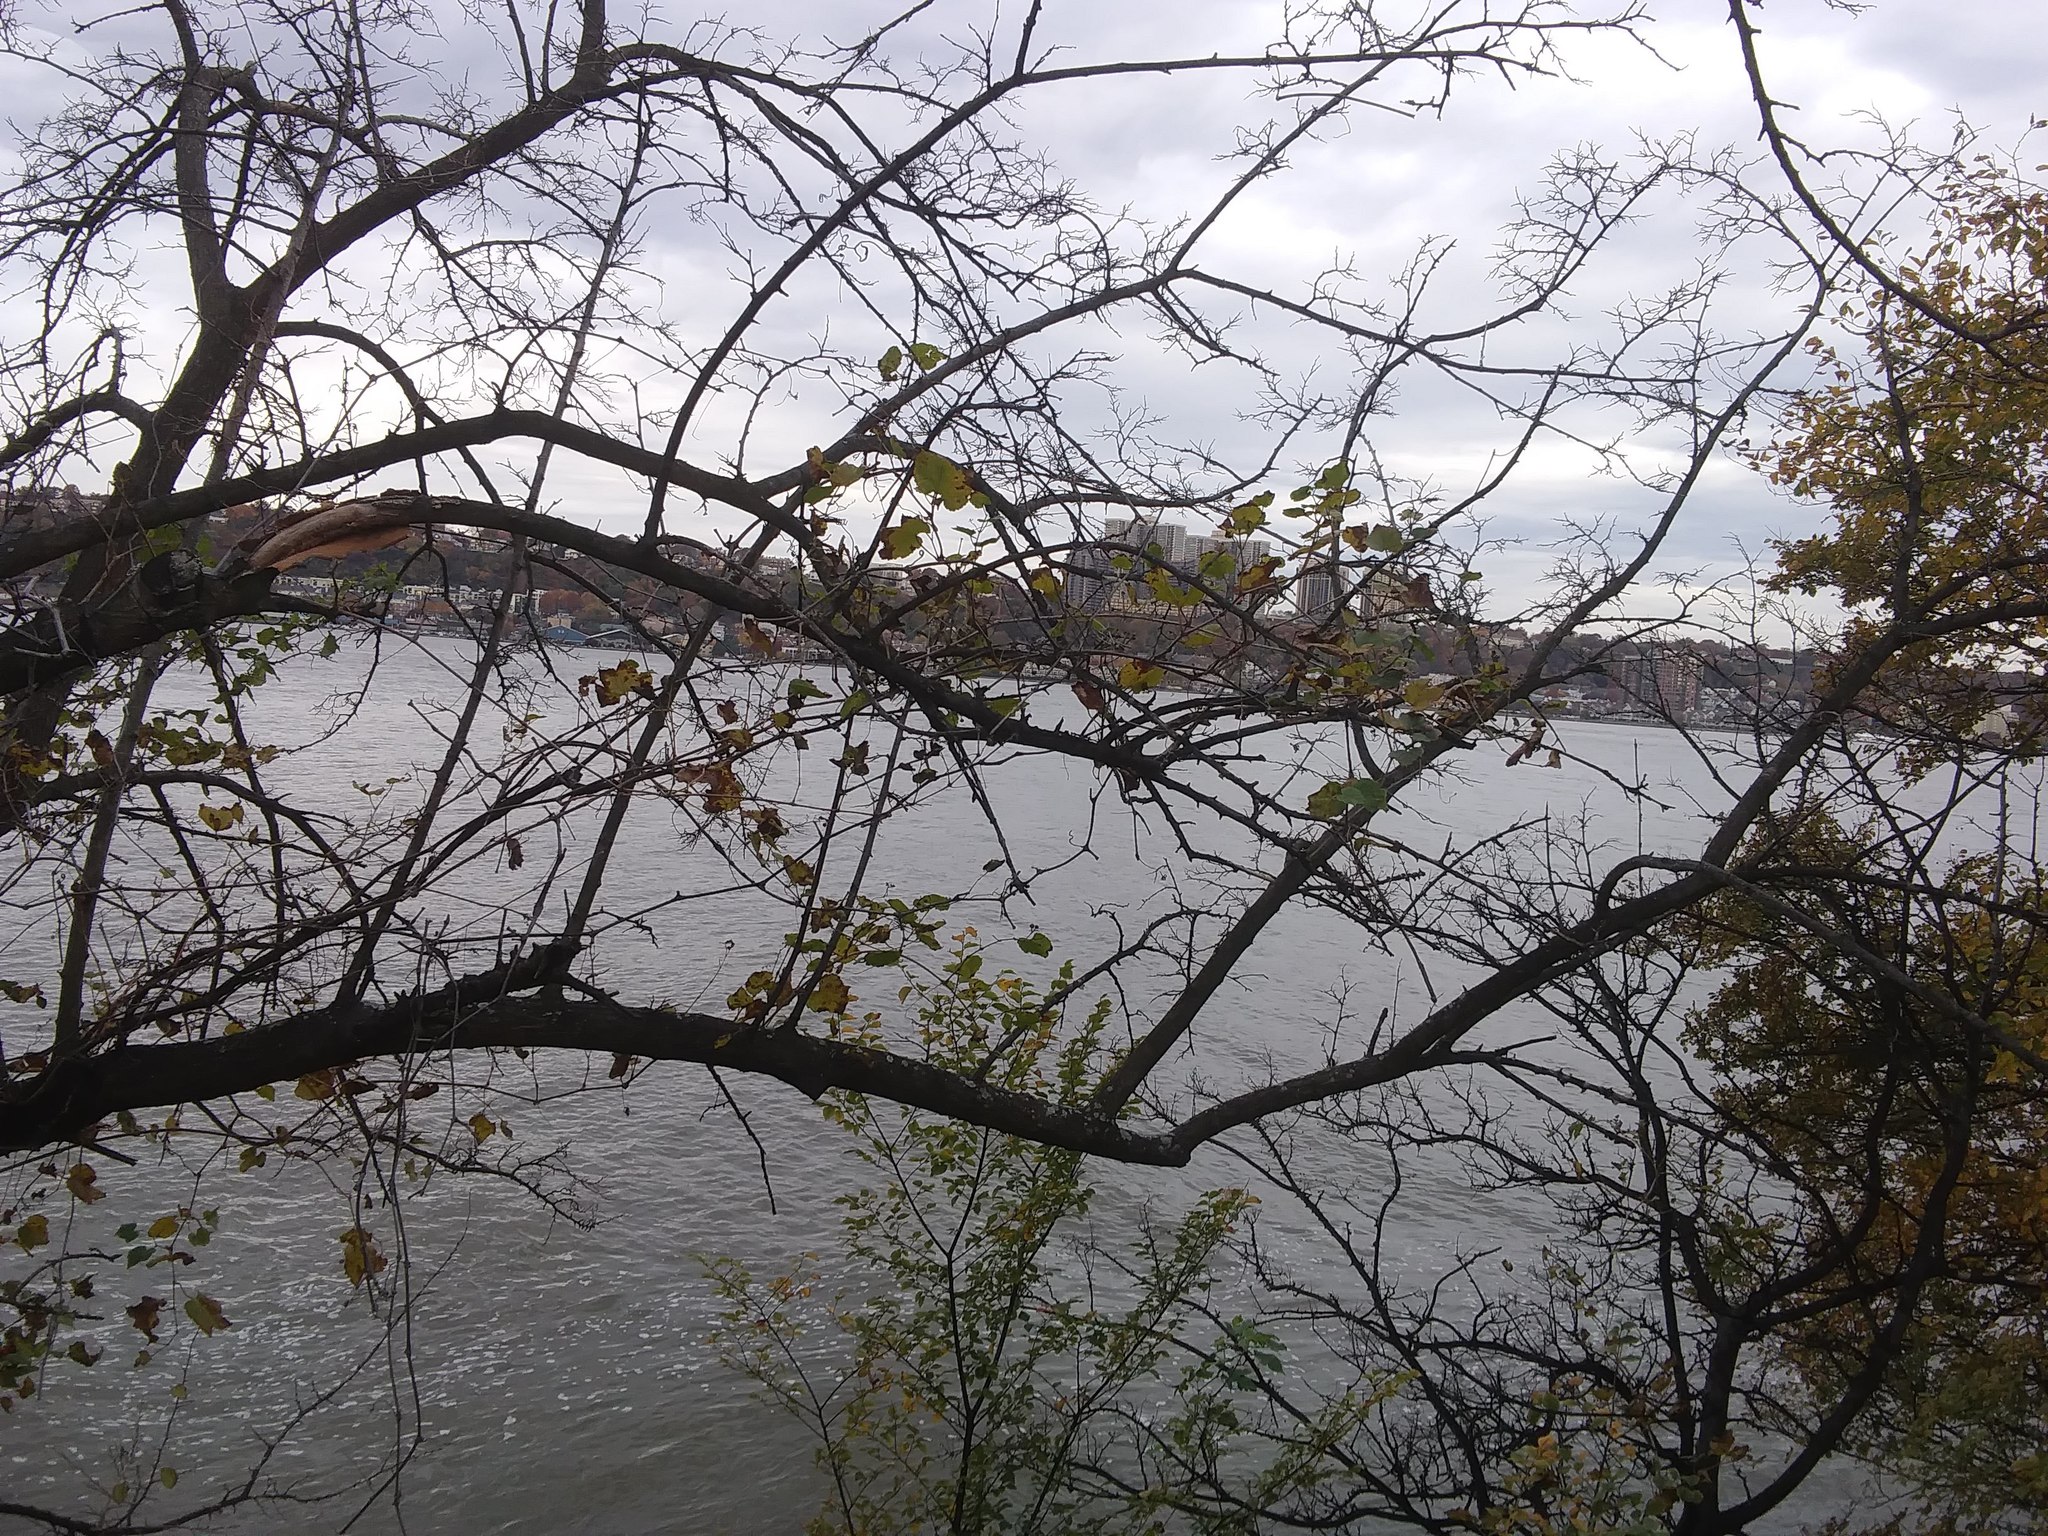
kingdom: Plantae
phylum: Tracheophyta
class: Magnoliopsida
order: Vitales
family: Vitaceae
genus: Ampelopsis
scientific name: Ampelopsis glandulosa
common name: Amur peppervine
